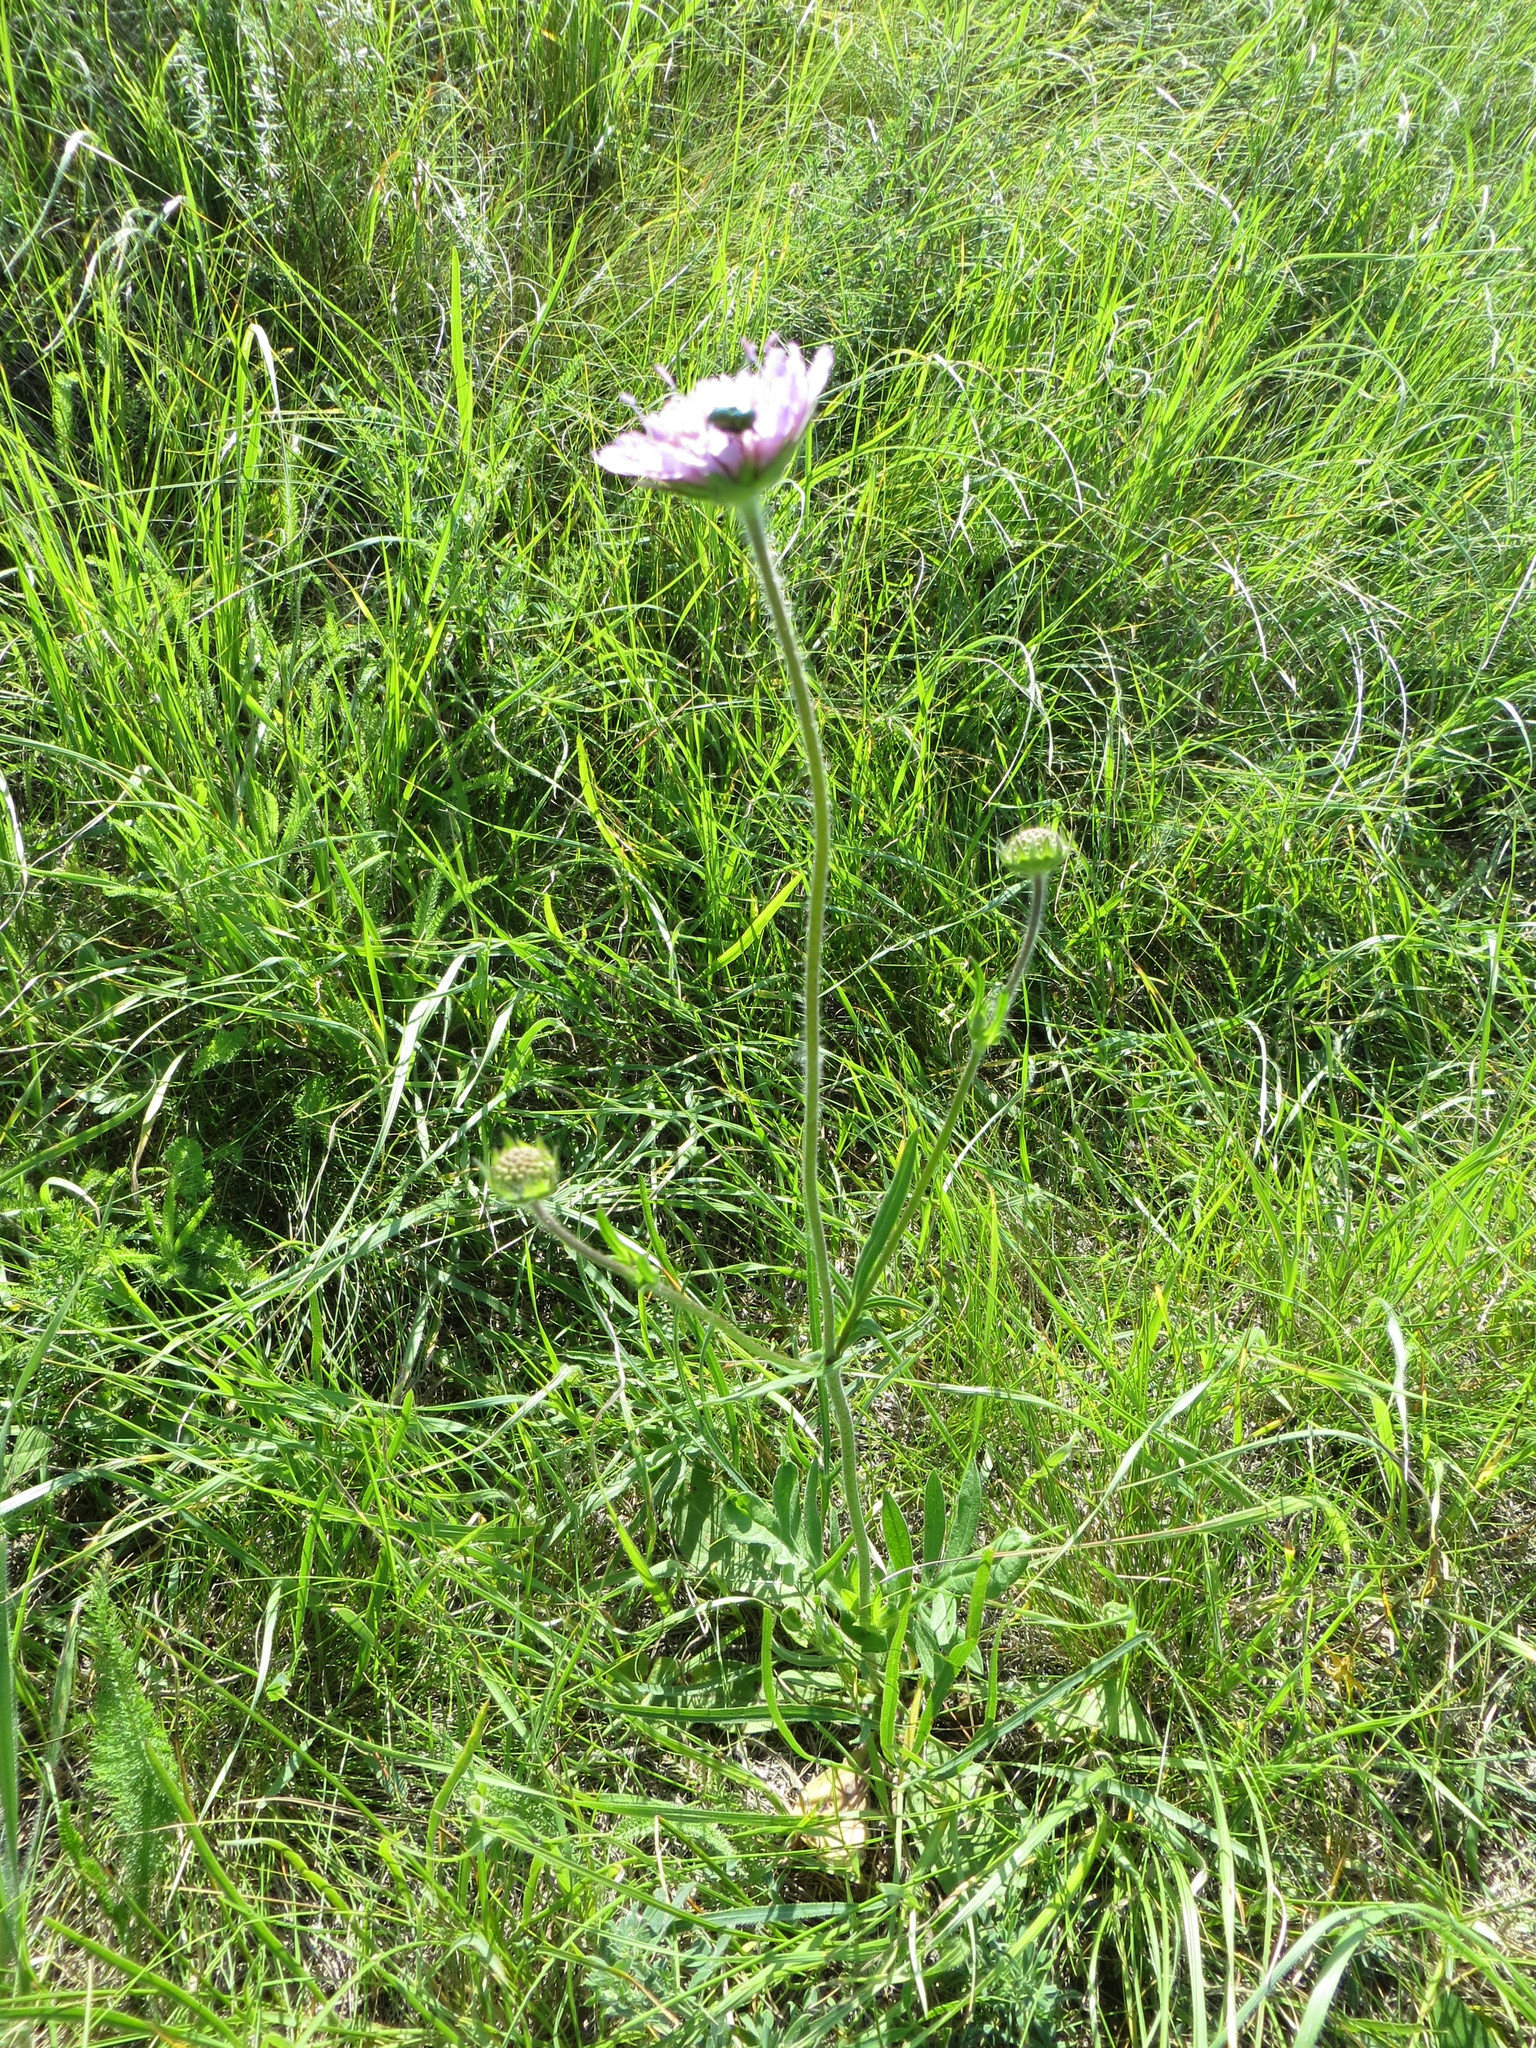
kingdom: Plantae
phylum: Tracheophyta
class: Magnoliopsida
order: Dipsacales
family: Caprifoliaceae
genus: Knautia
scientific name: Knautia arvensis
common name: Field scabiosa
